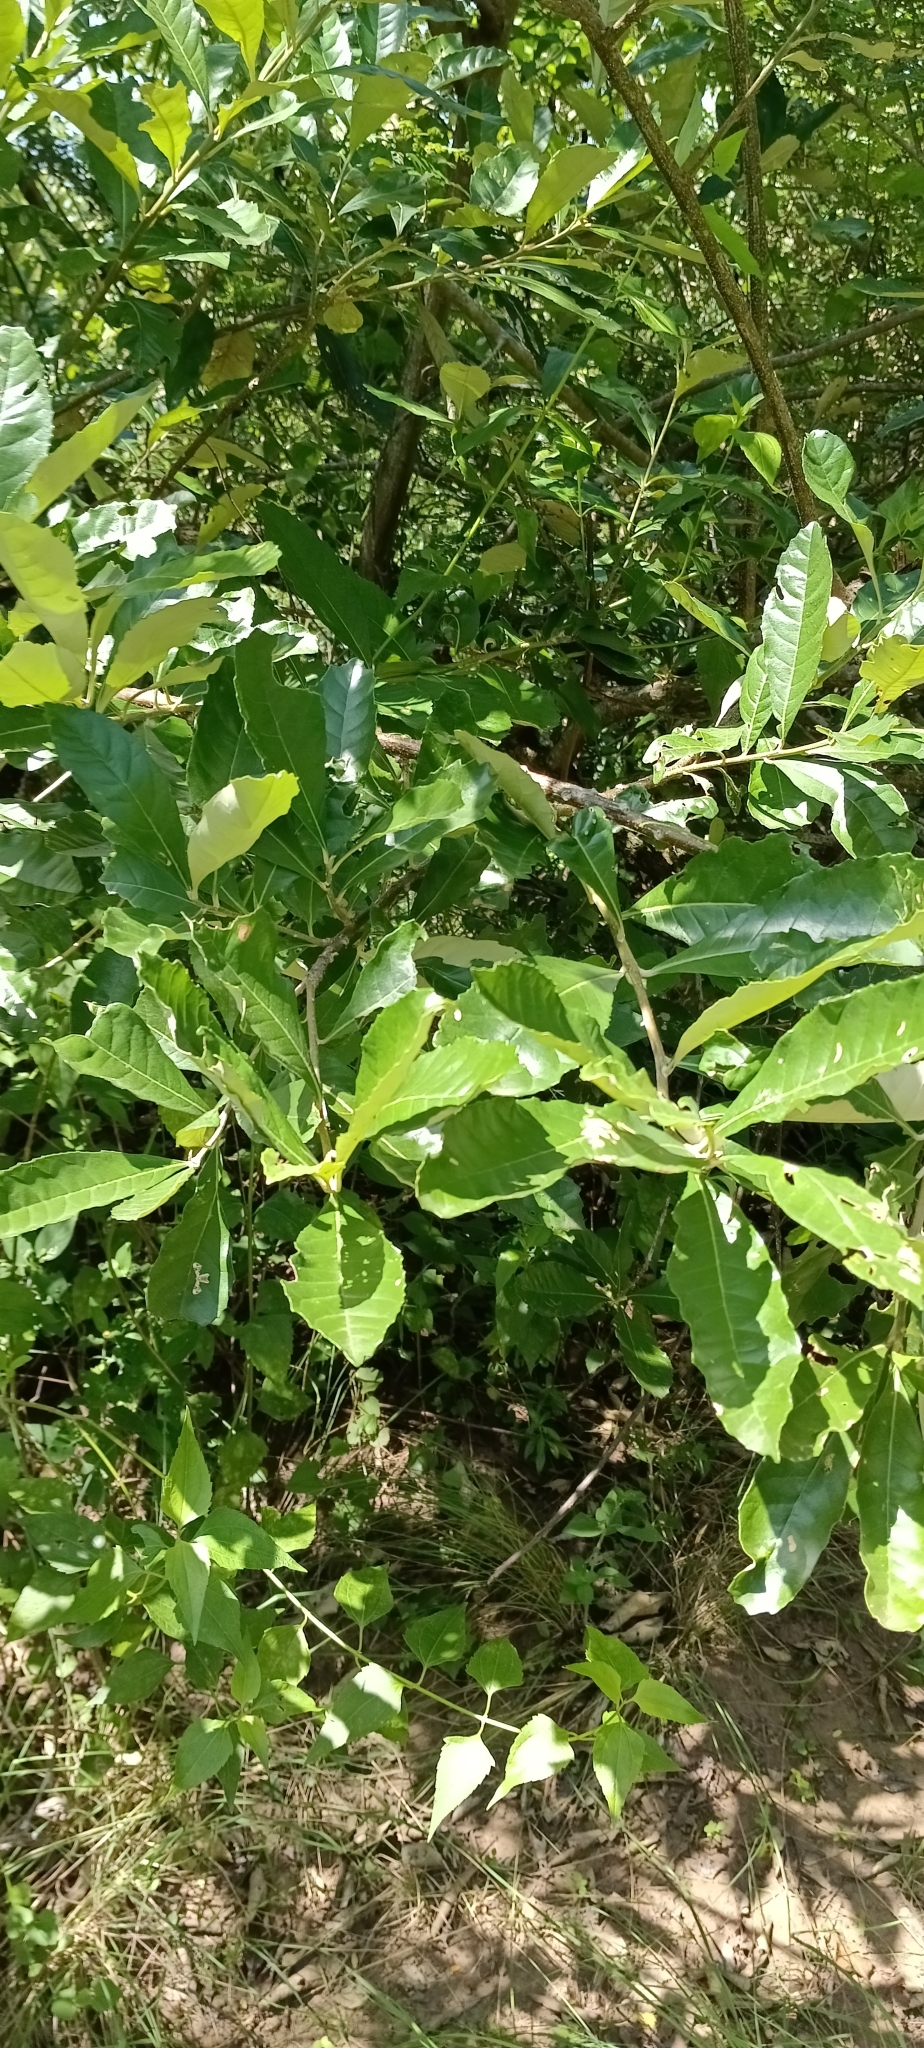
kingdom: Plantae
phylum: Tracheophyta
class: Magnoliopsida
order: Asterales
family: Asteraceae
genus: Brachylaena
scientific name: Brachylaena discolor
